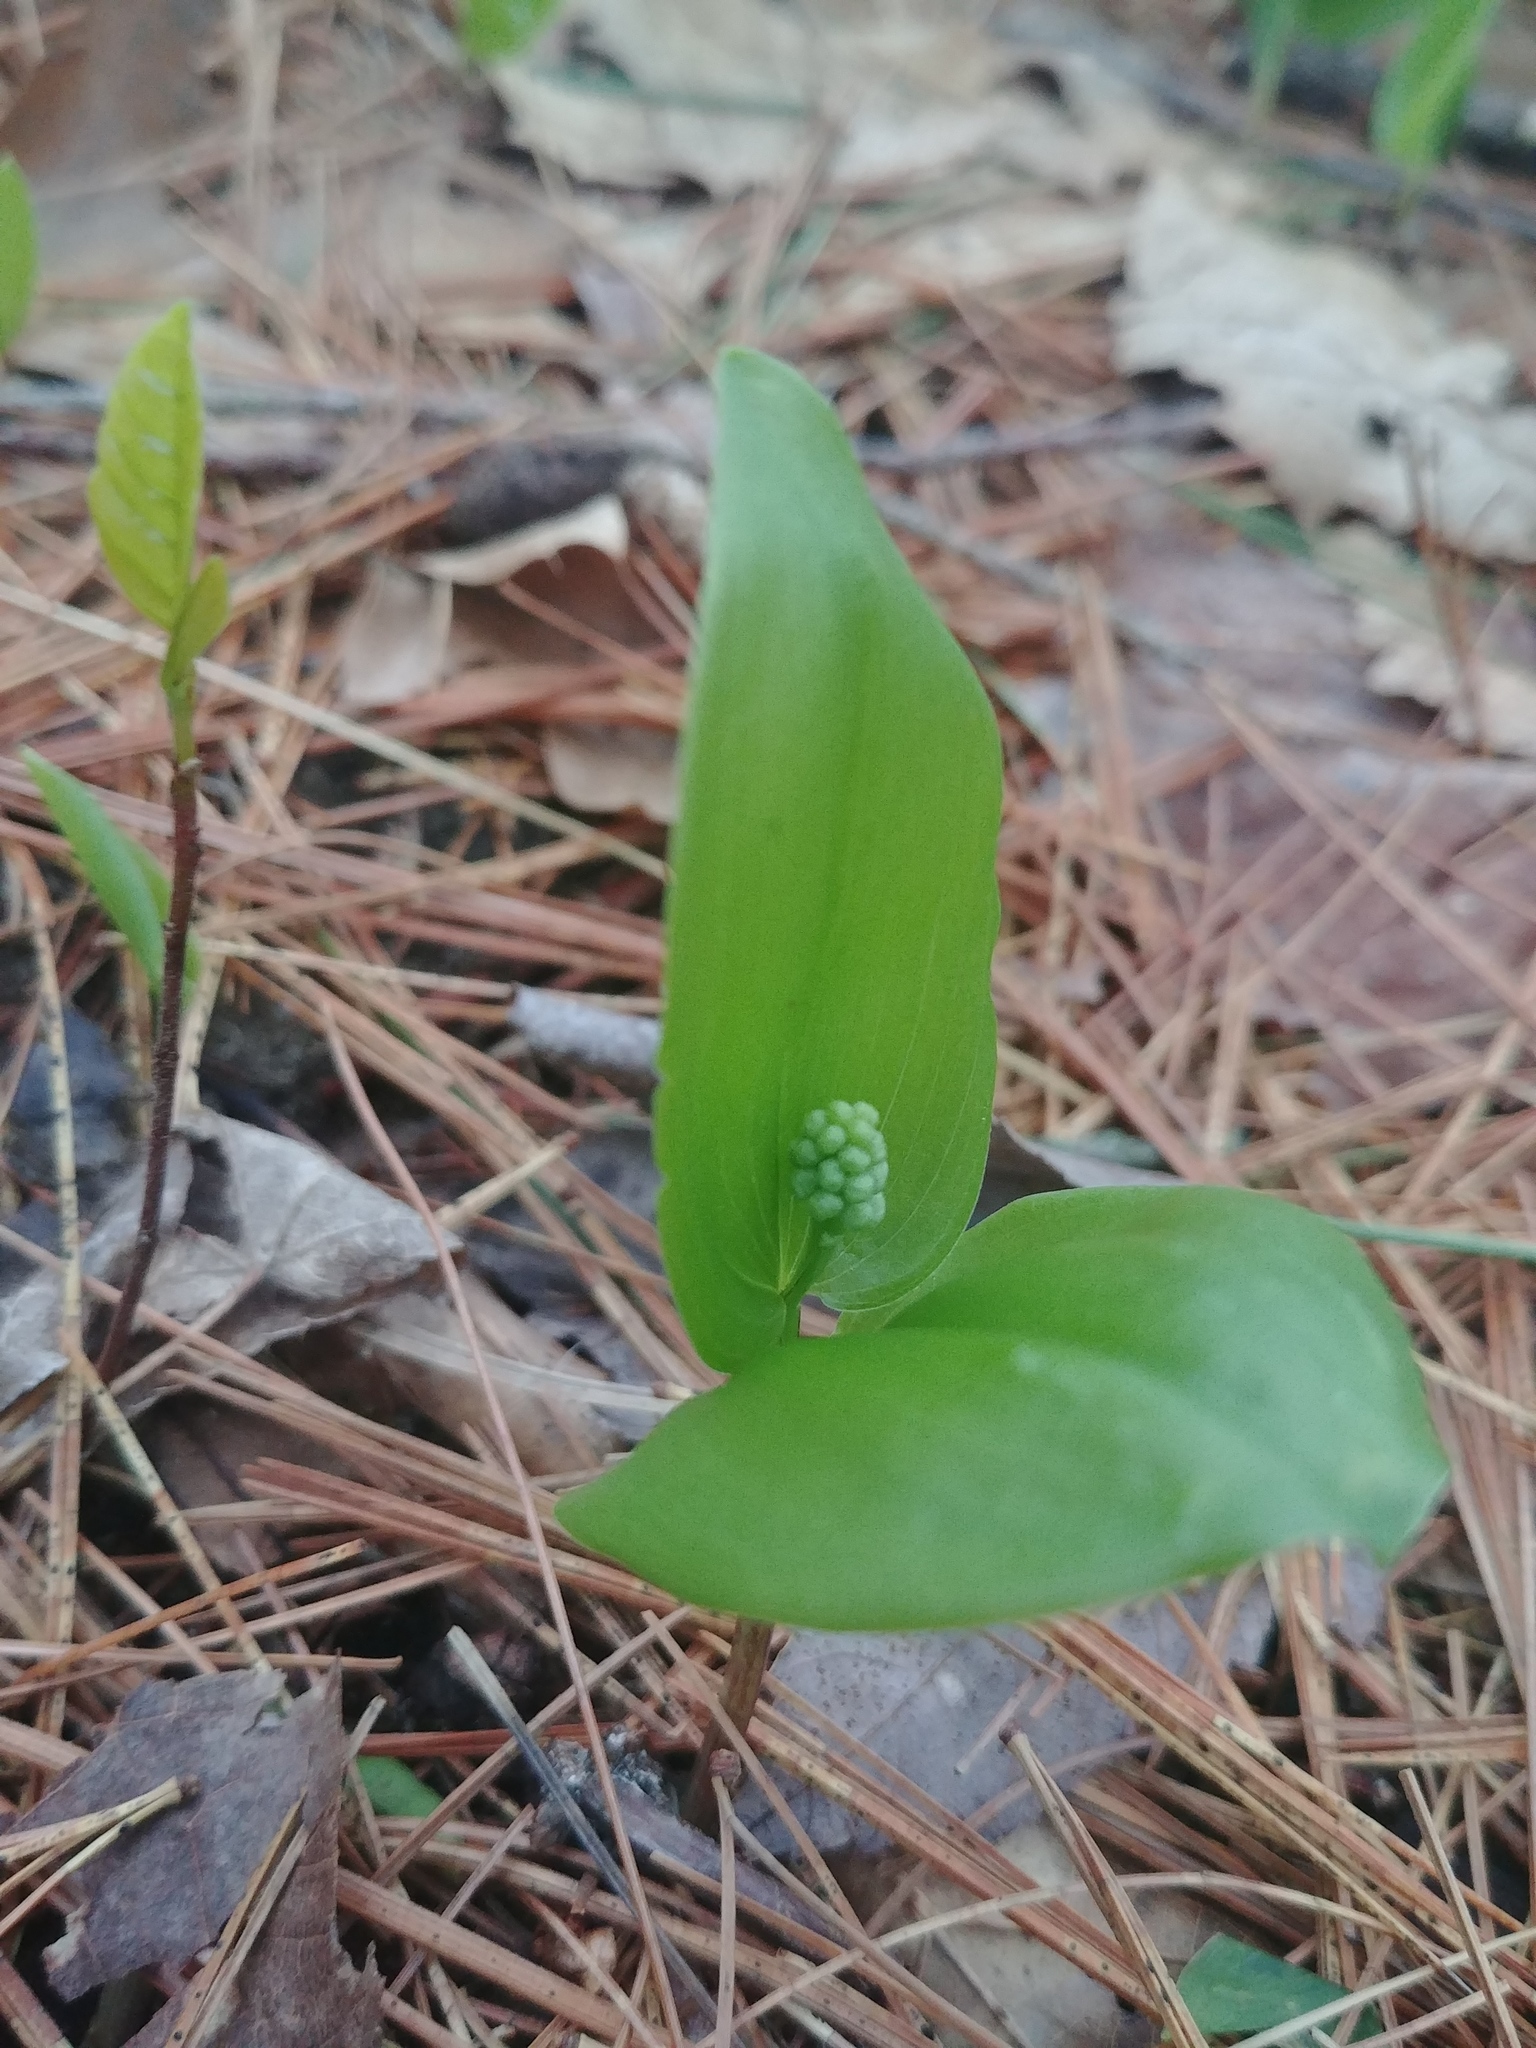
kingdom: Plantae
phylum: Tracheophyta
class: Liliopsida
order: Asparagales
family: Asparagaceae
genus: Maianthemum
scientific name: Maianthemum canadense
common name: False lily-of-the-valley
